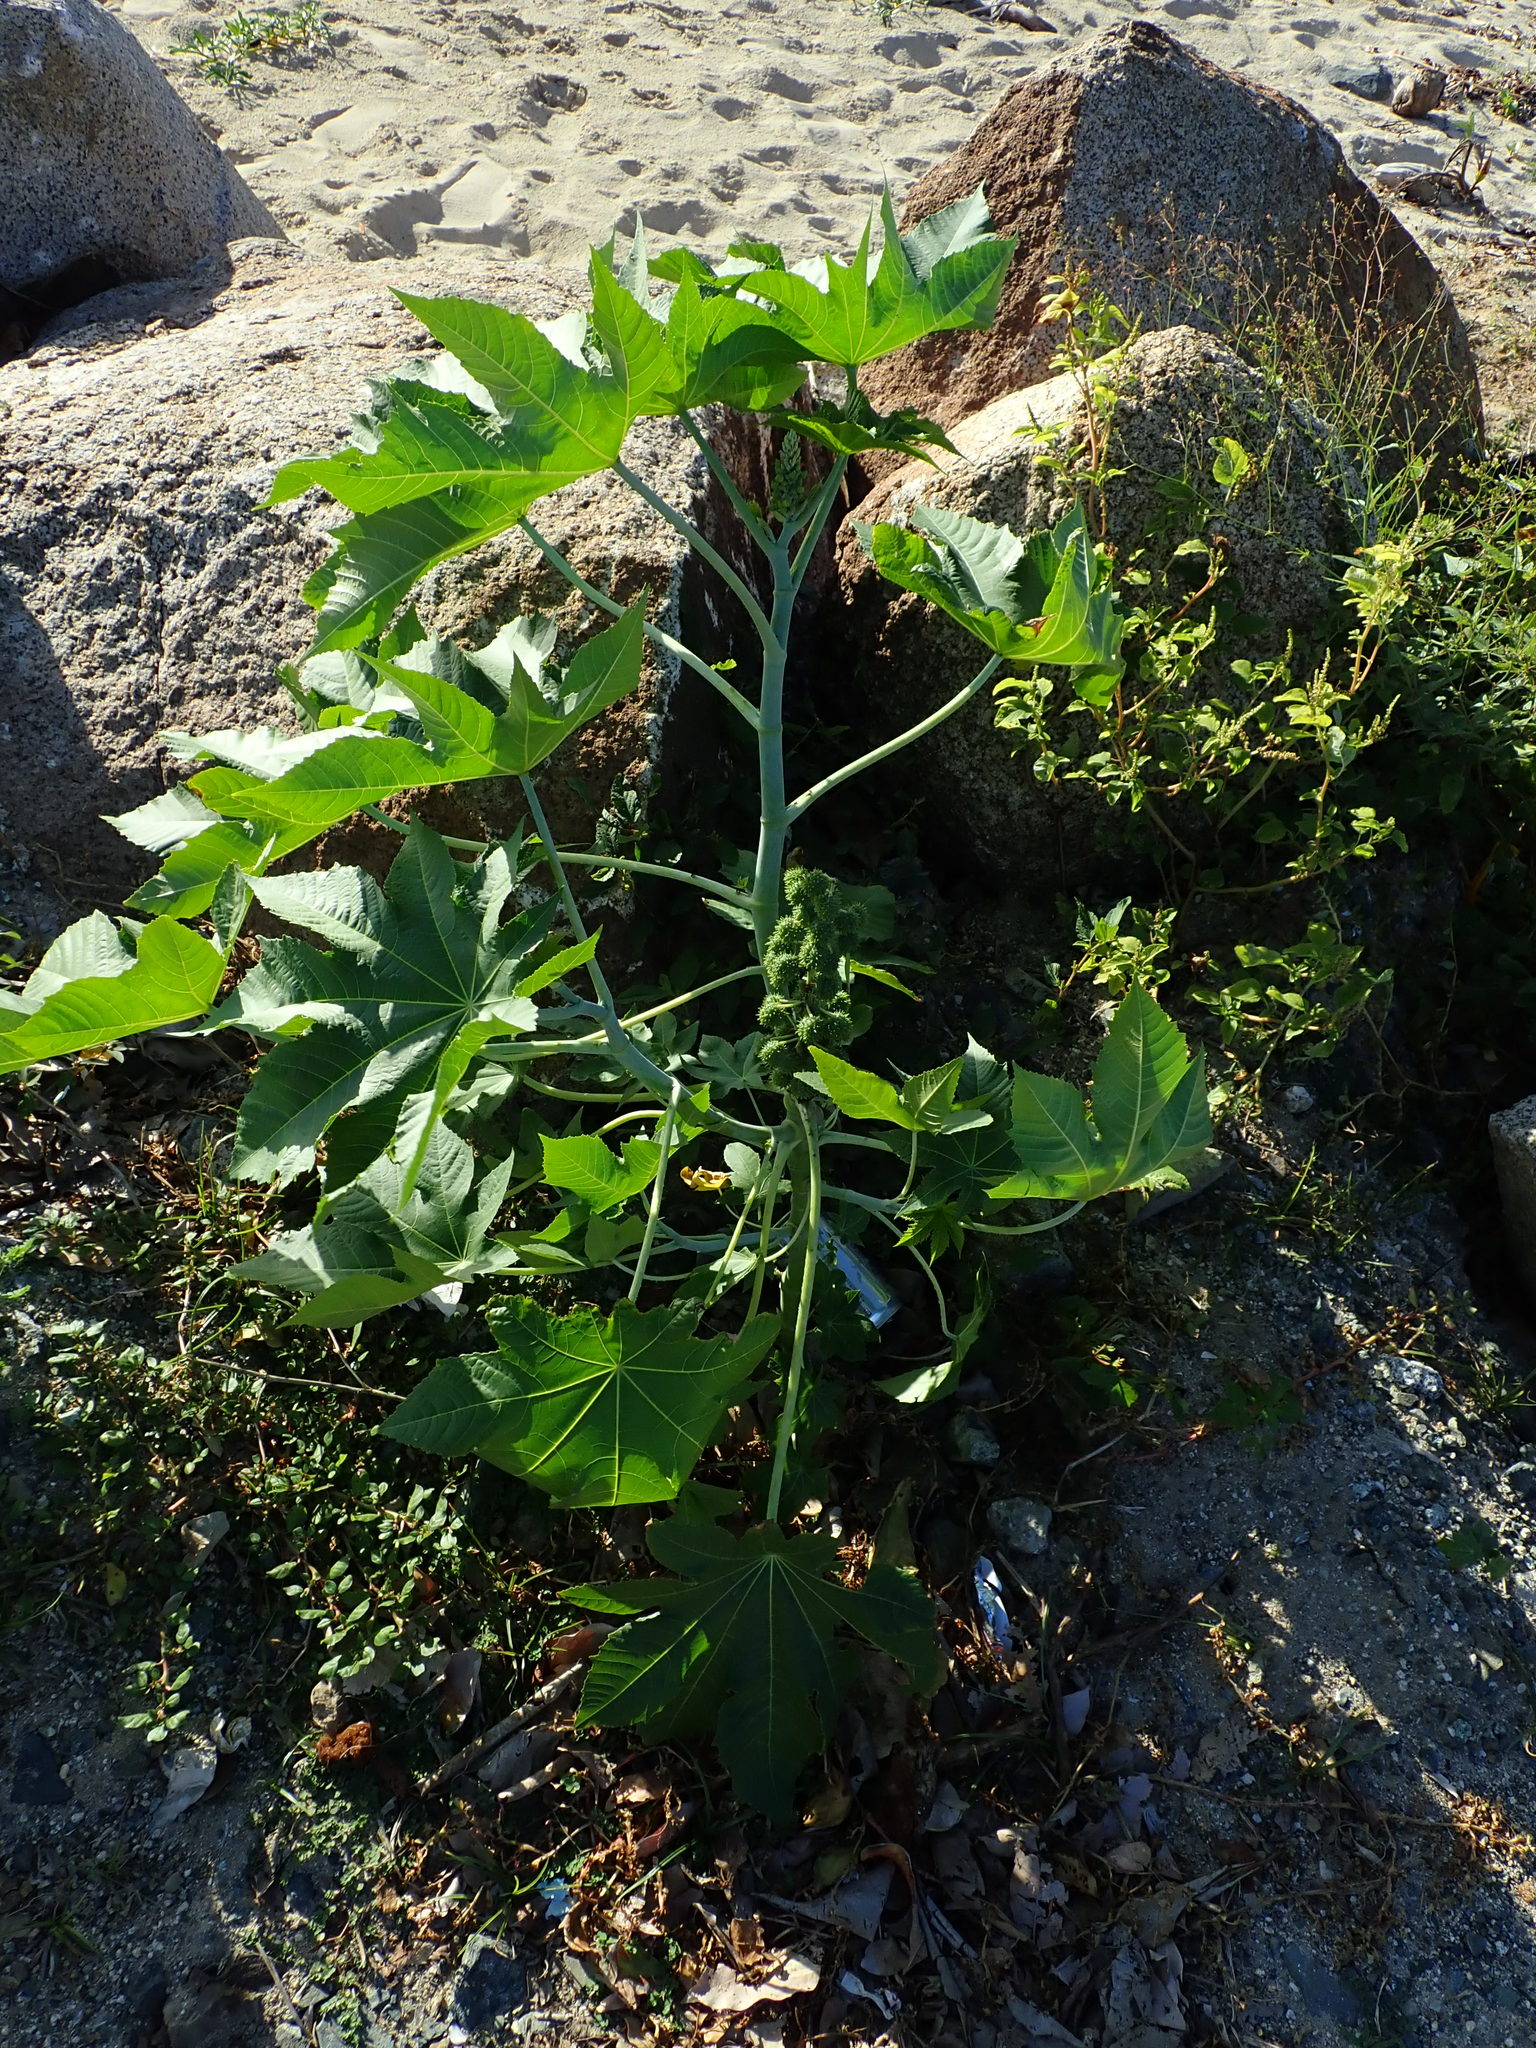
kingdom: Plantae
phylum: Tracheophyta
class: Magnoliopsida
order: Malpighiales
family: Euphorbiaceae
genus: Ricinus
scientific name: Ricinus communis
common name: Castor-oil-plant
